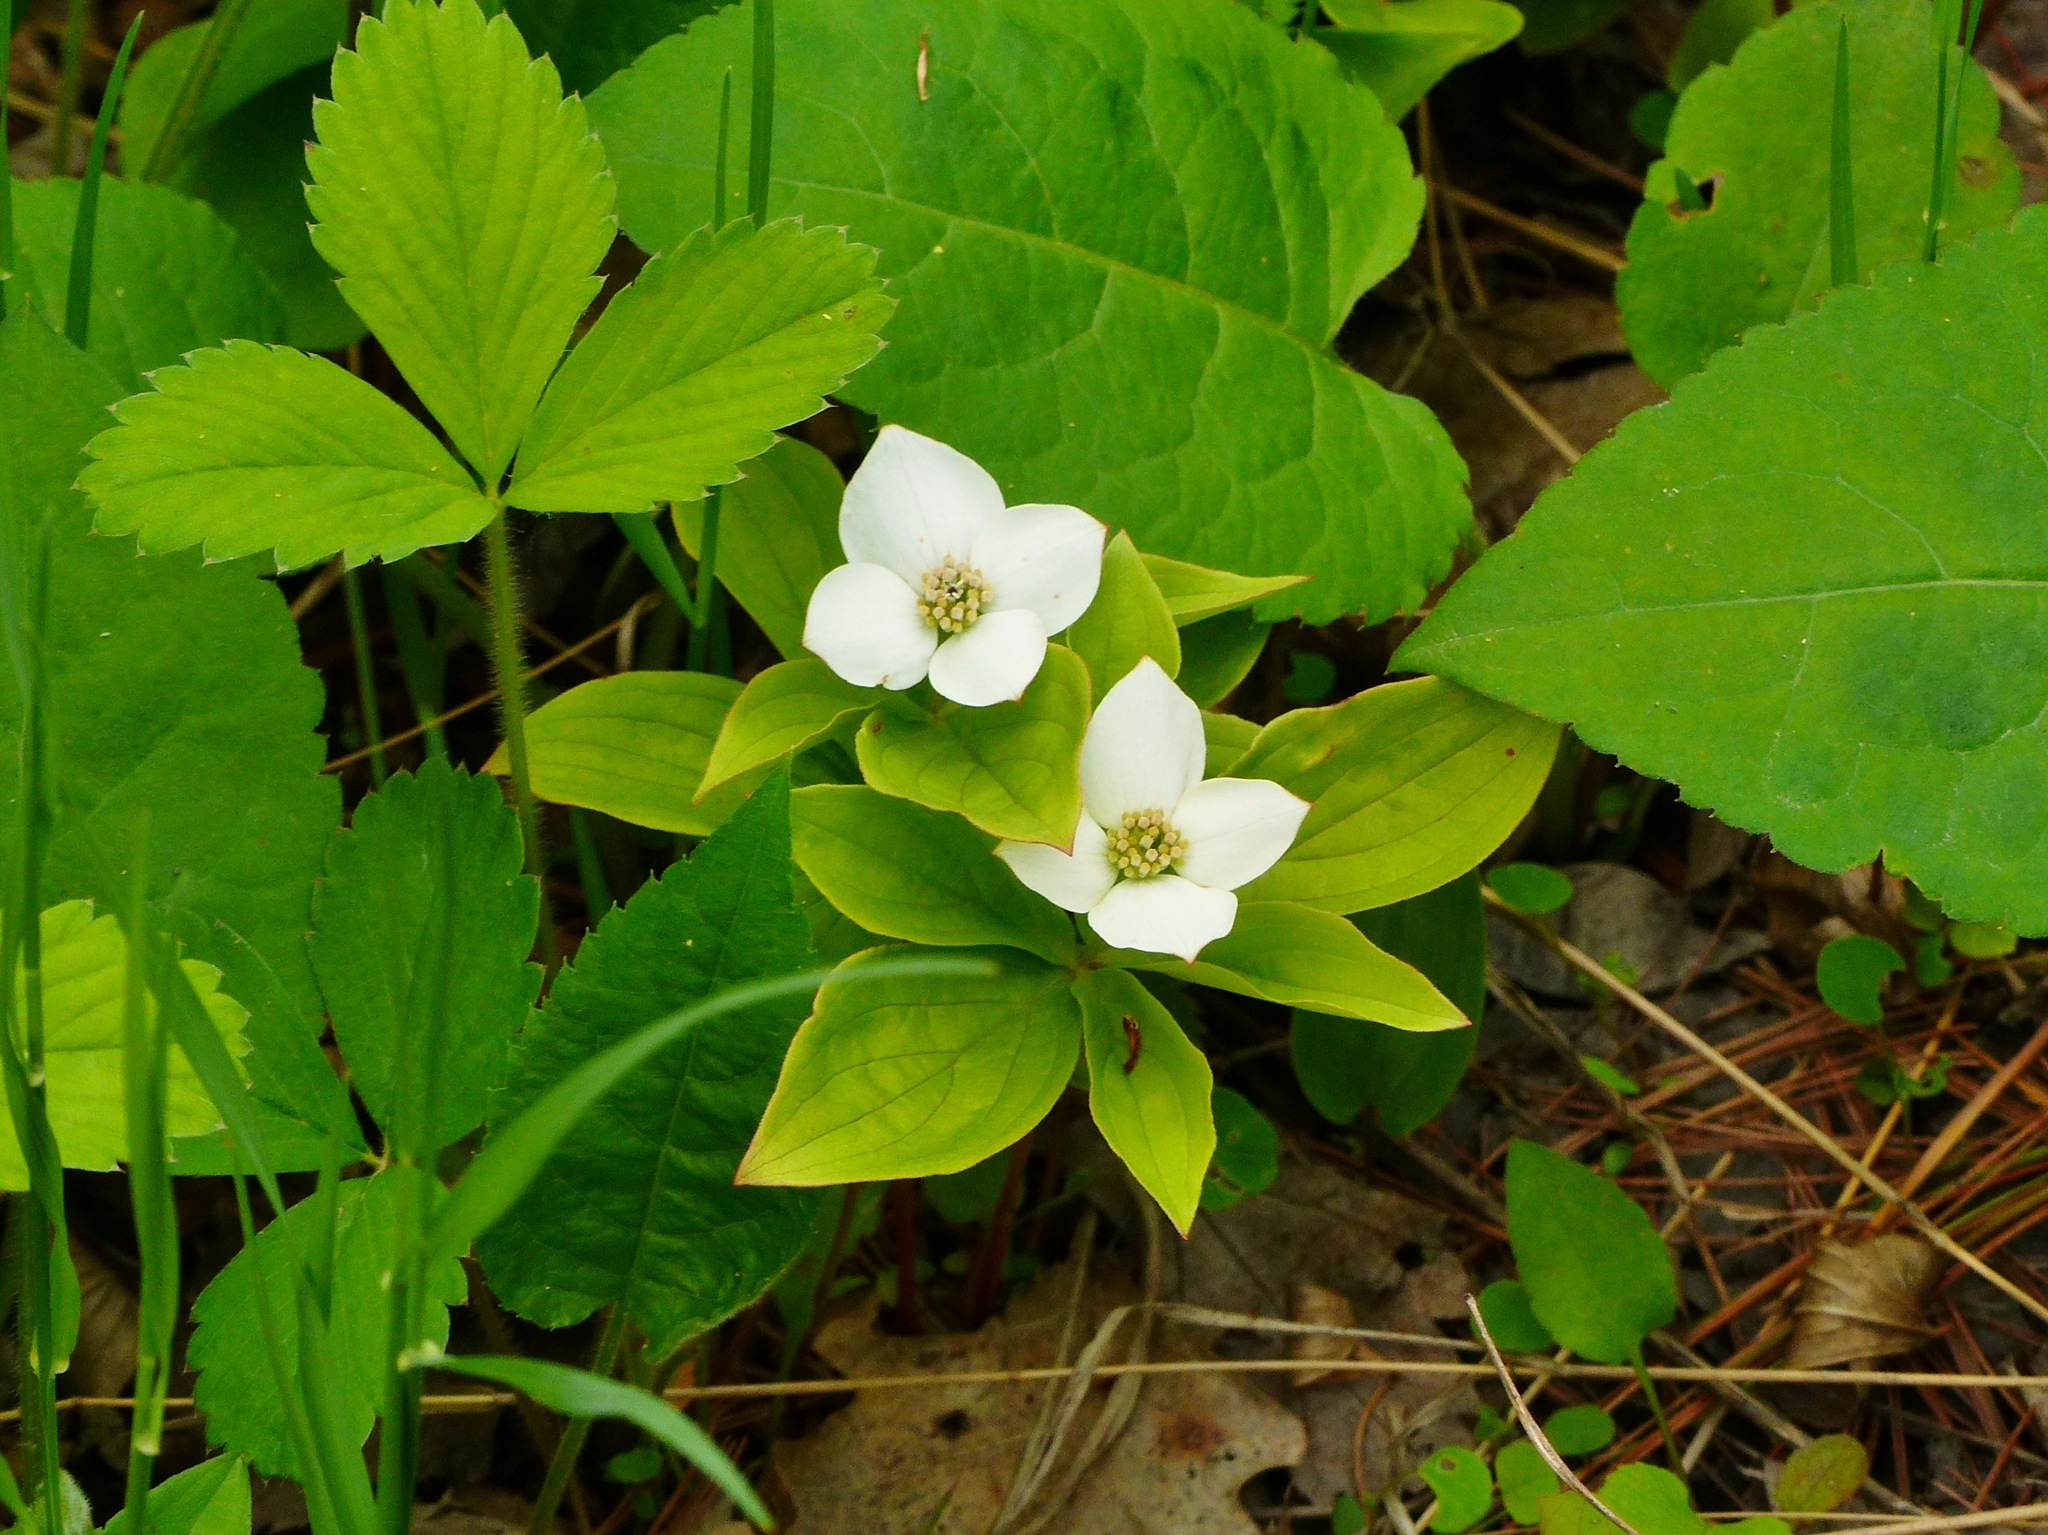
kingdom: Plantae
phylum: Tracheophyta
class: Magnoliopsida
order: Cornales
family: Cornaceae
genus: Cornus
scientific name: Cornus canadensis
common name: Creeping dogwood
